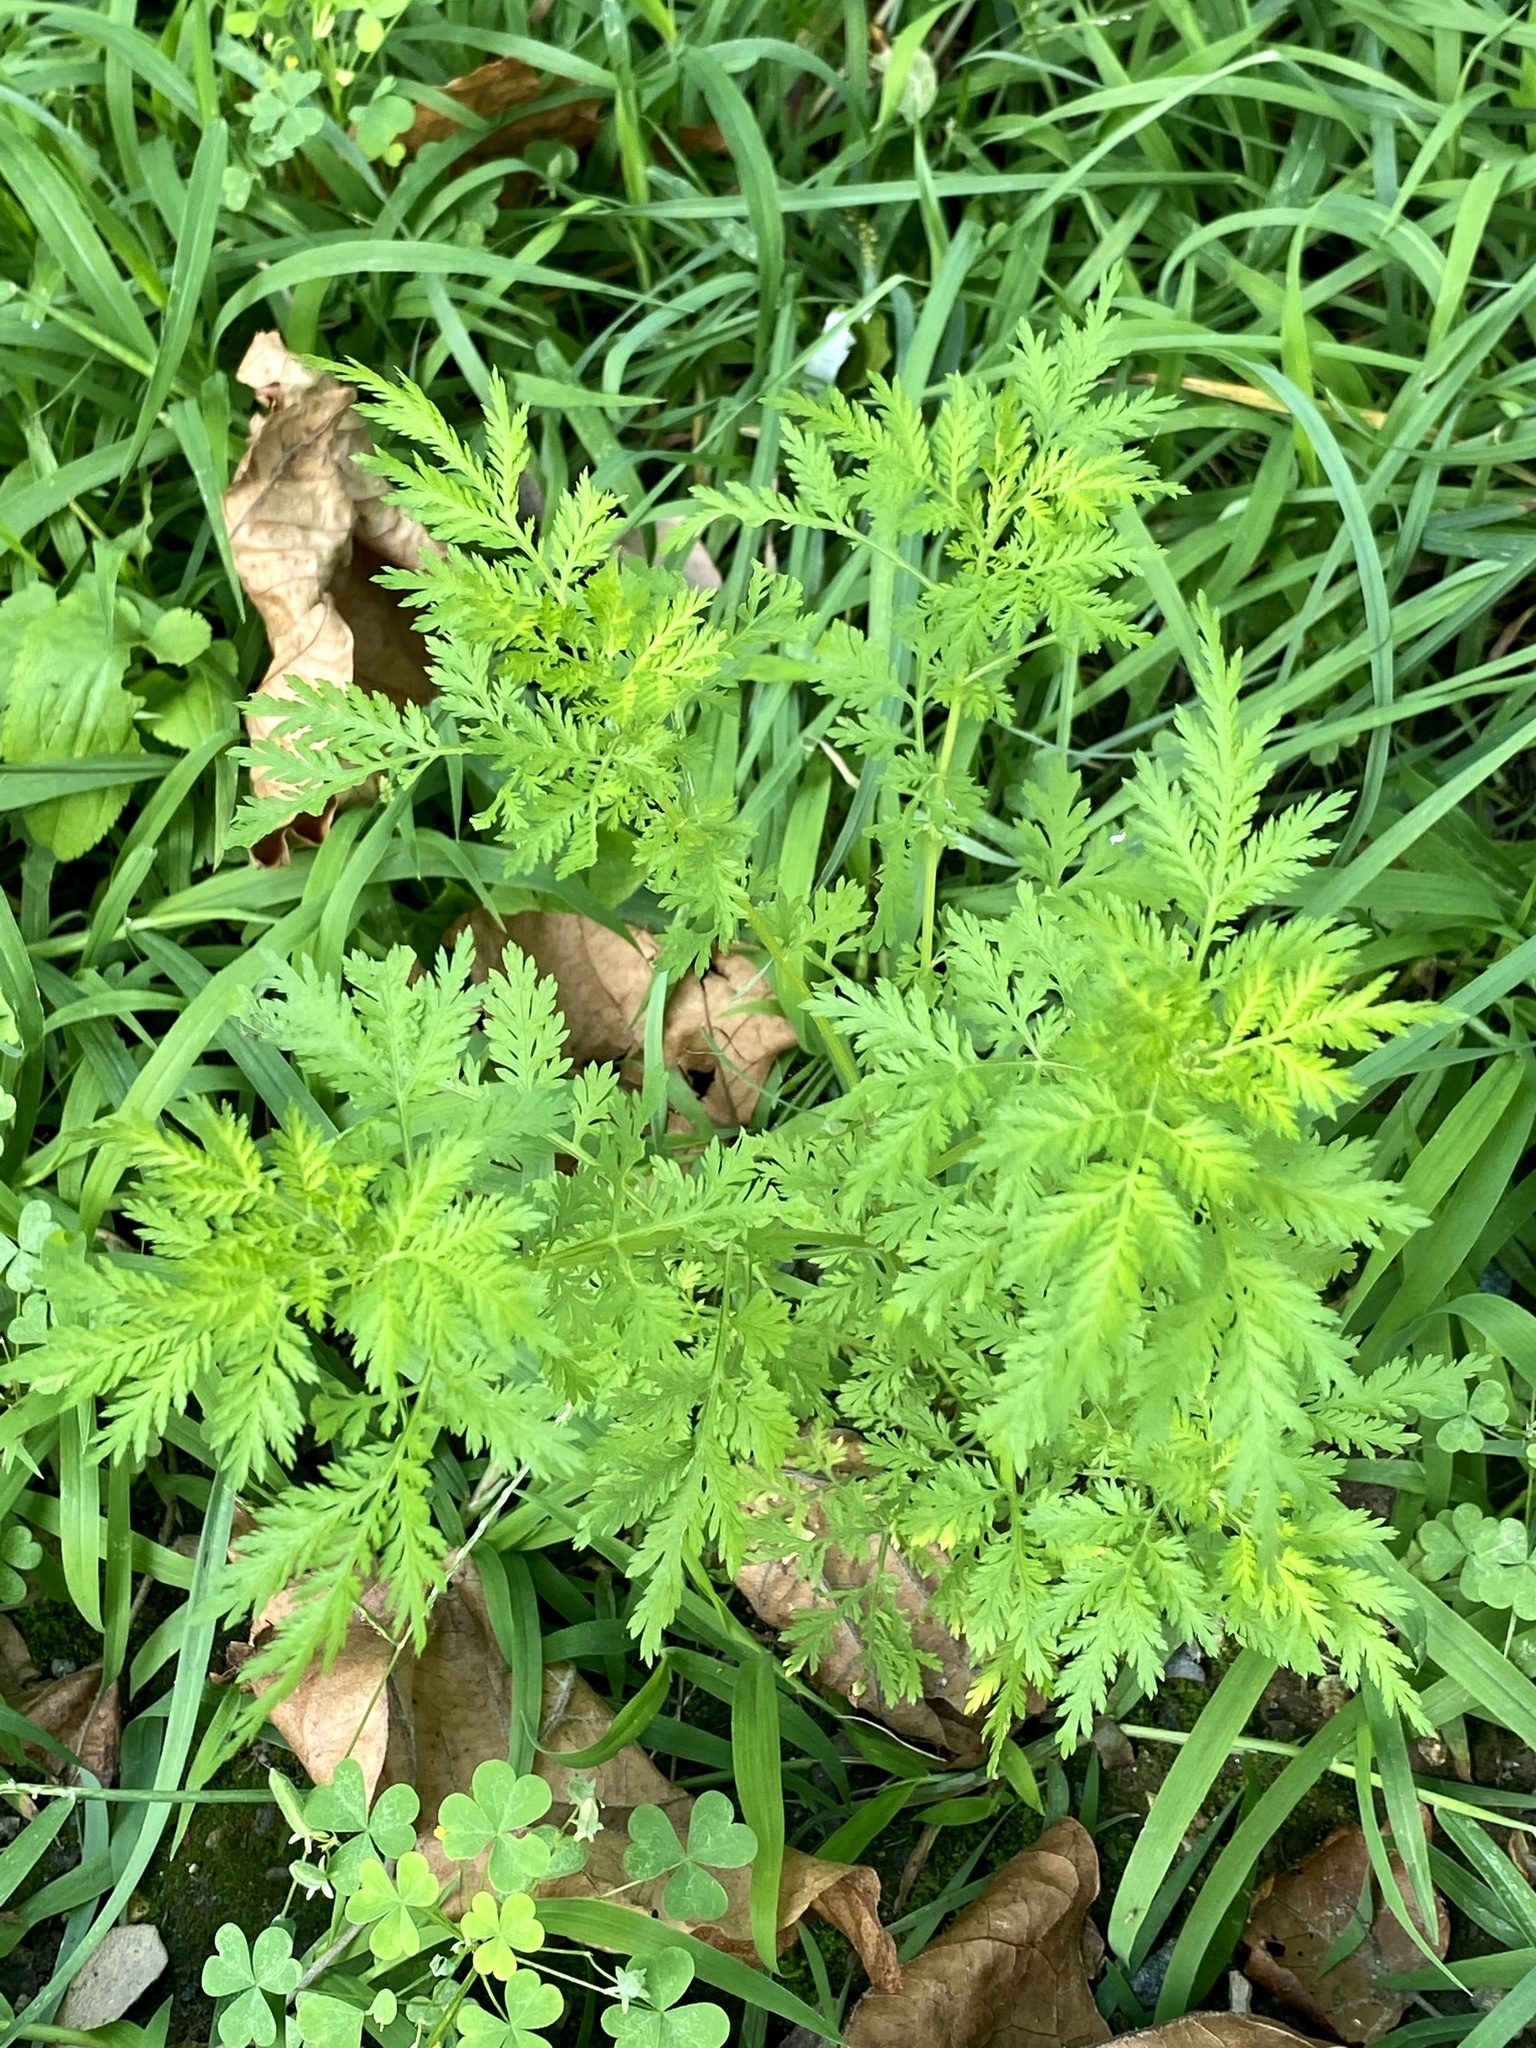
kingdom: Plantae
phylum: Tracheophyta
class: Magnoliopsida
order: Asterales
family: Asteraceae
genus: Artemisia
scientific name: Artemisia annua
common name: Sweet sagewort
